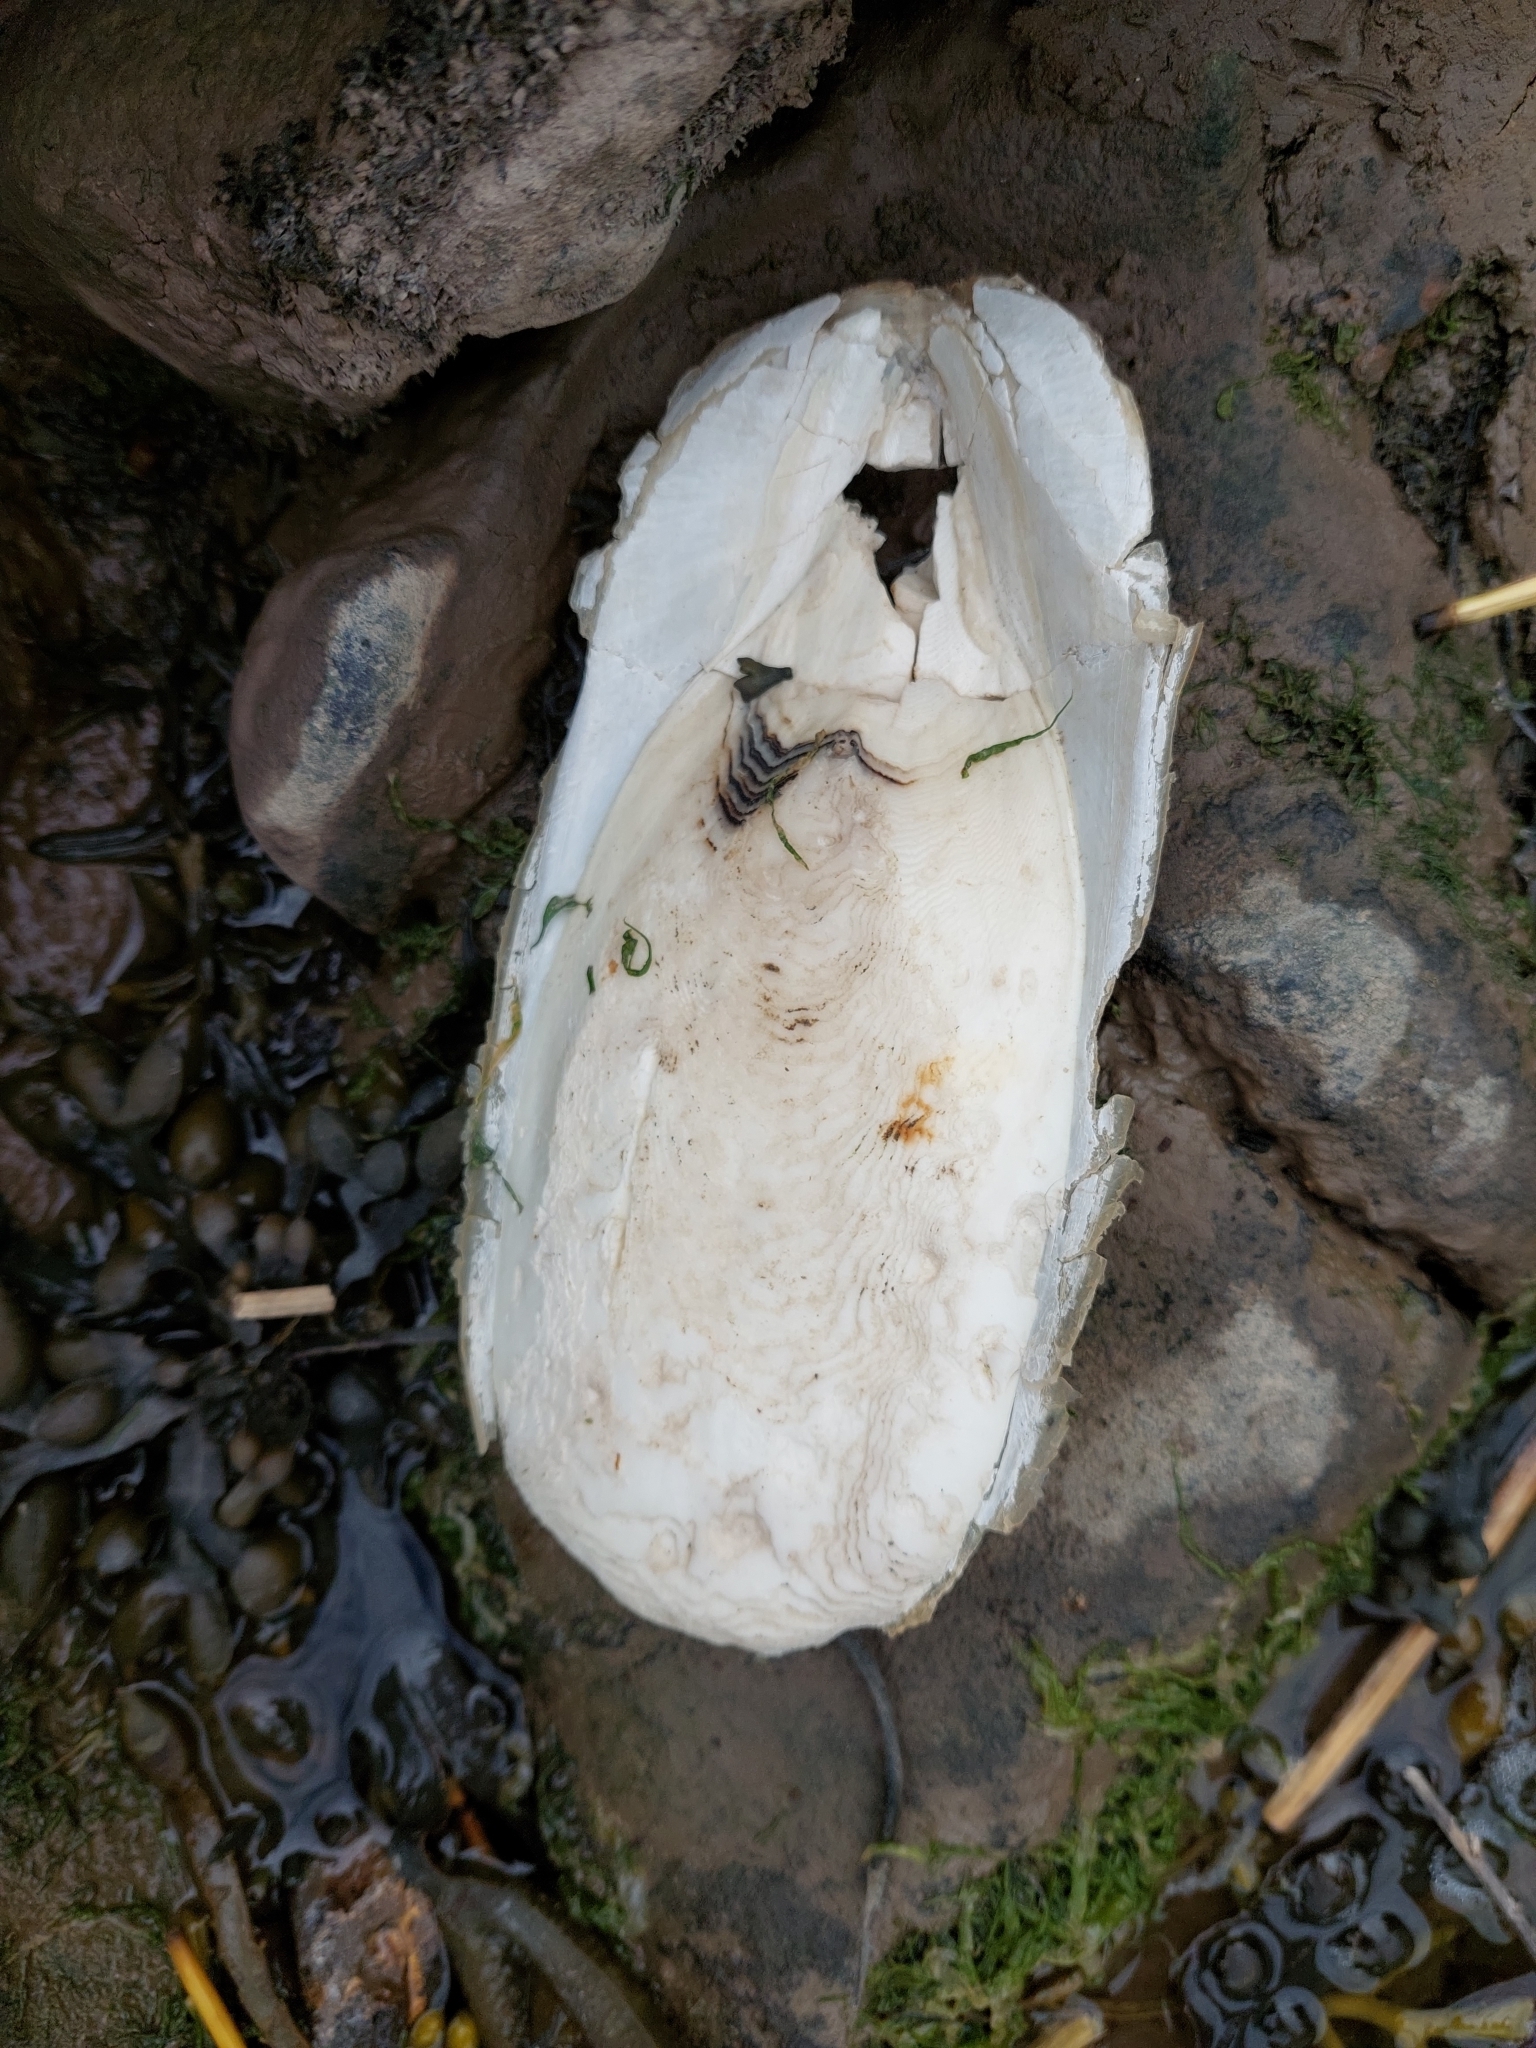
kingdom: Animalia
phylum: Mollusca
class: Cephalopoda
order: Sepiida
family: Sepiidae
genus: Sepia
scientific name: Sepia officinalis
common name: Common cuttlefish
